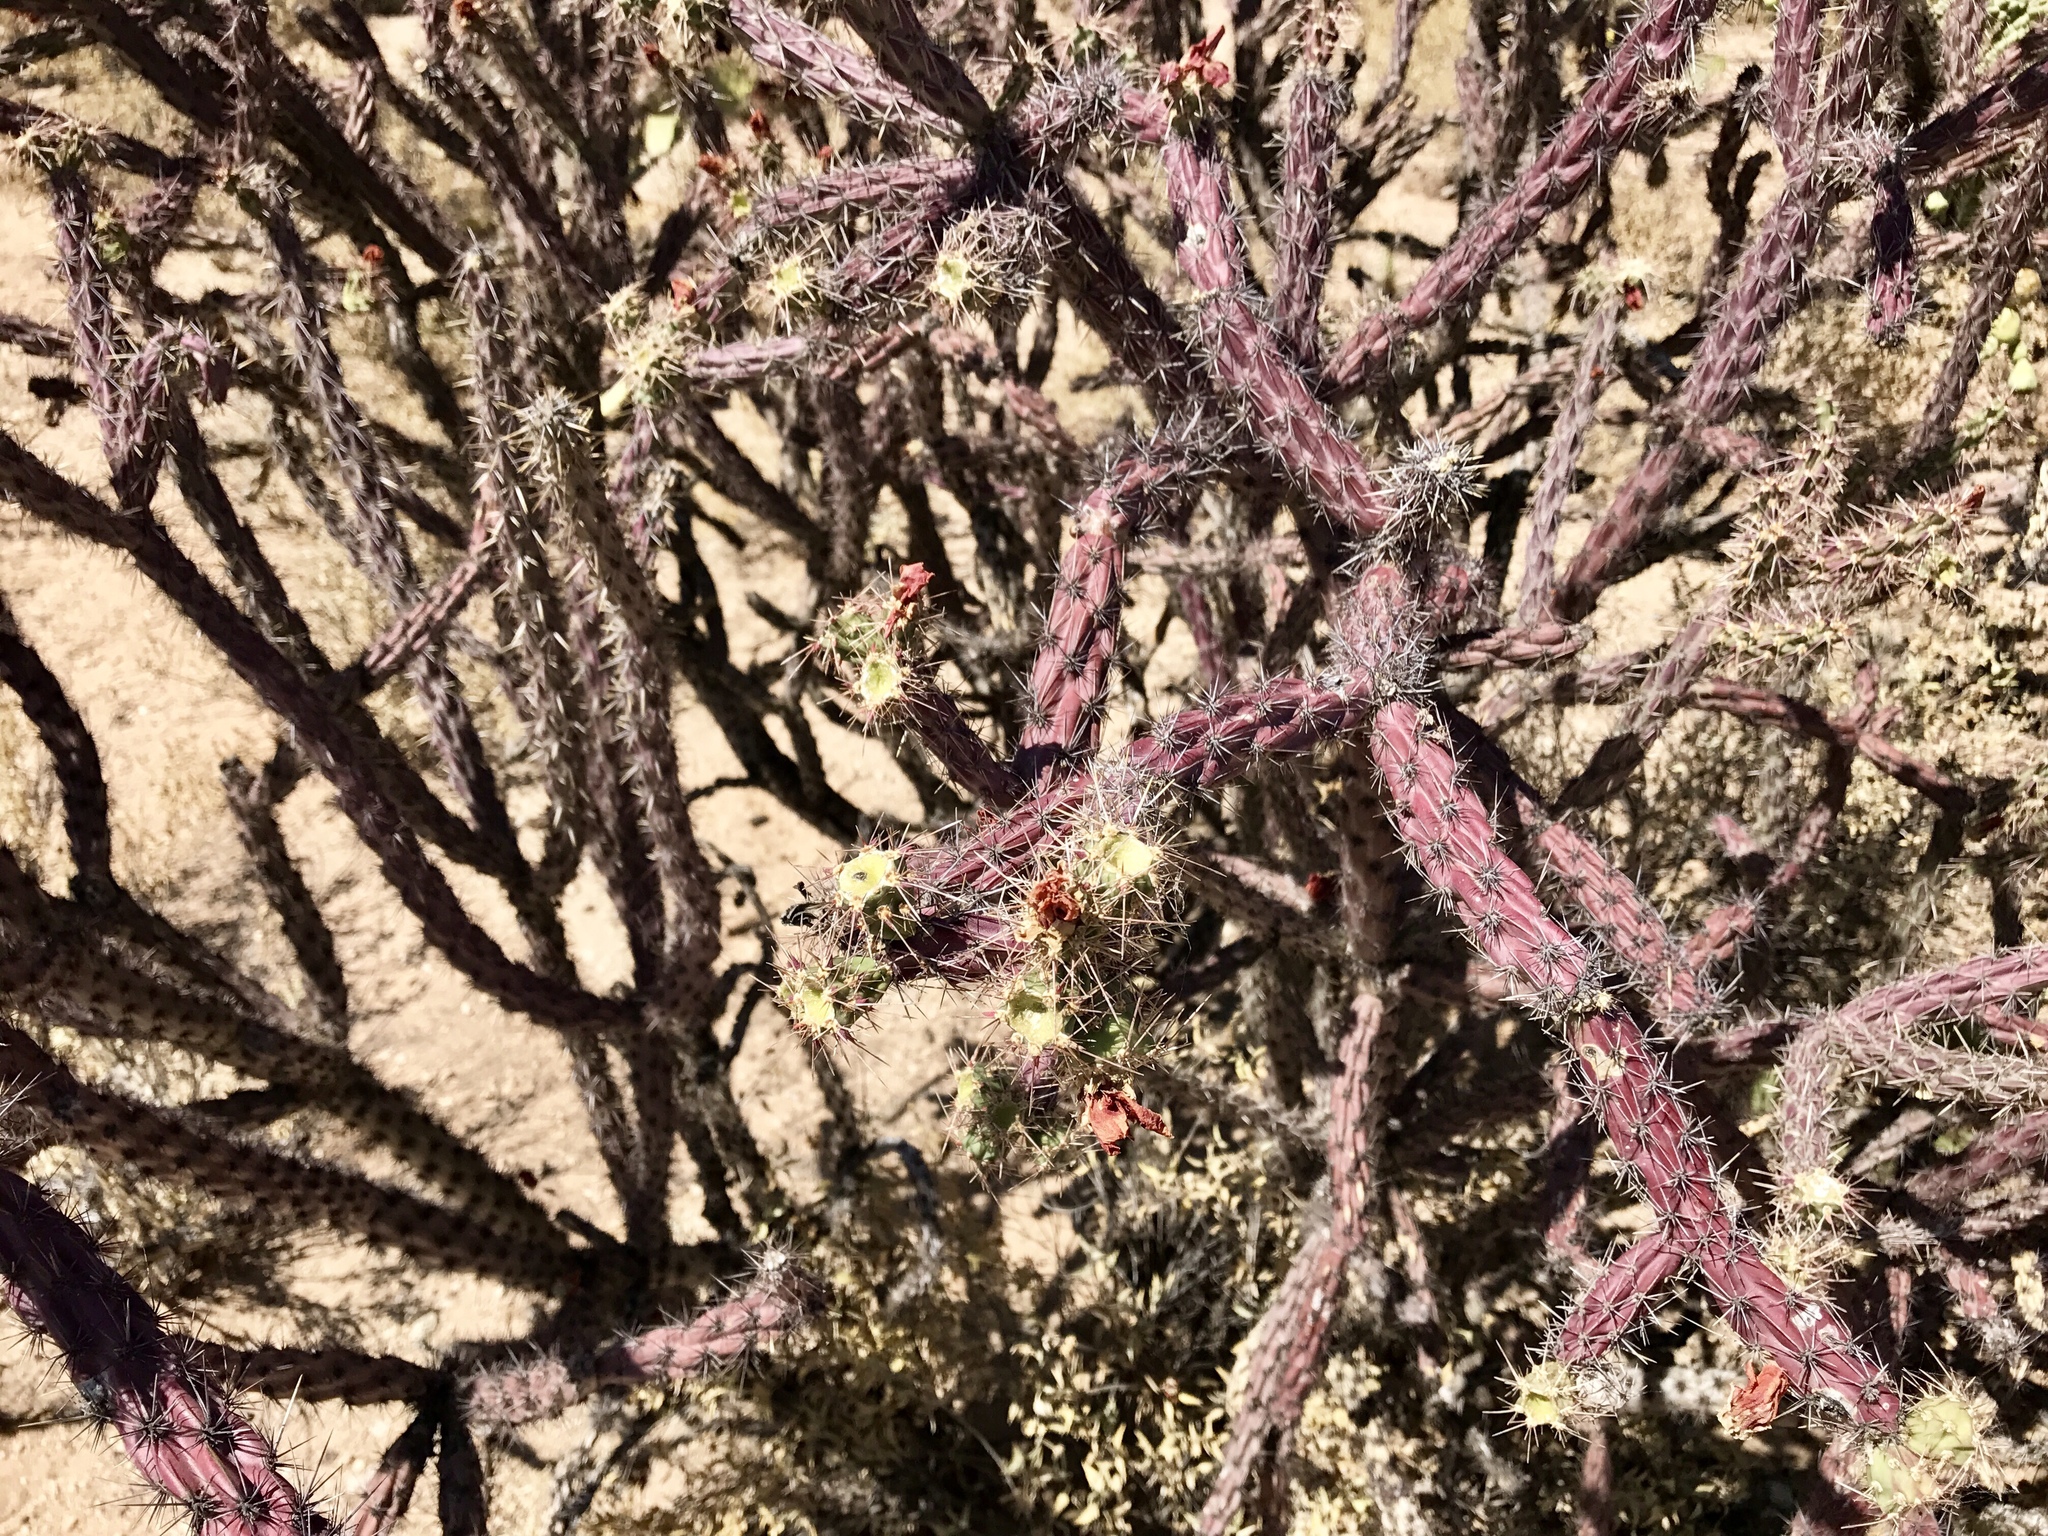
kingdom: Plantae
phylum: Tracheophyta
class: Magnoliopsida
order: Caryophyllales
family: Cactaceae
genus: Cylindropuntia
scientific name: Cylindropuntia thurberi
